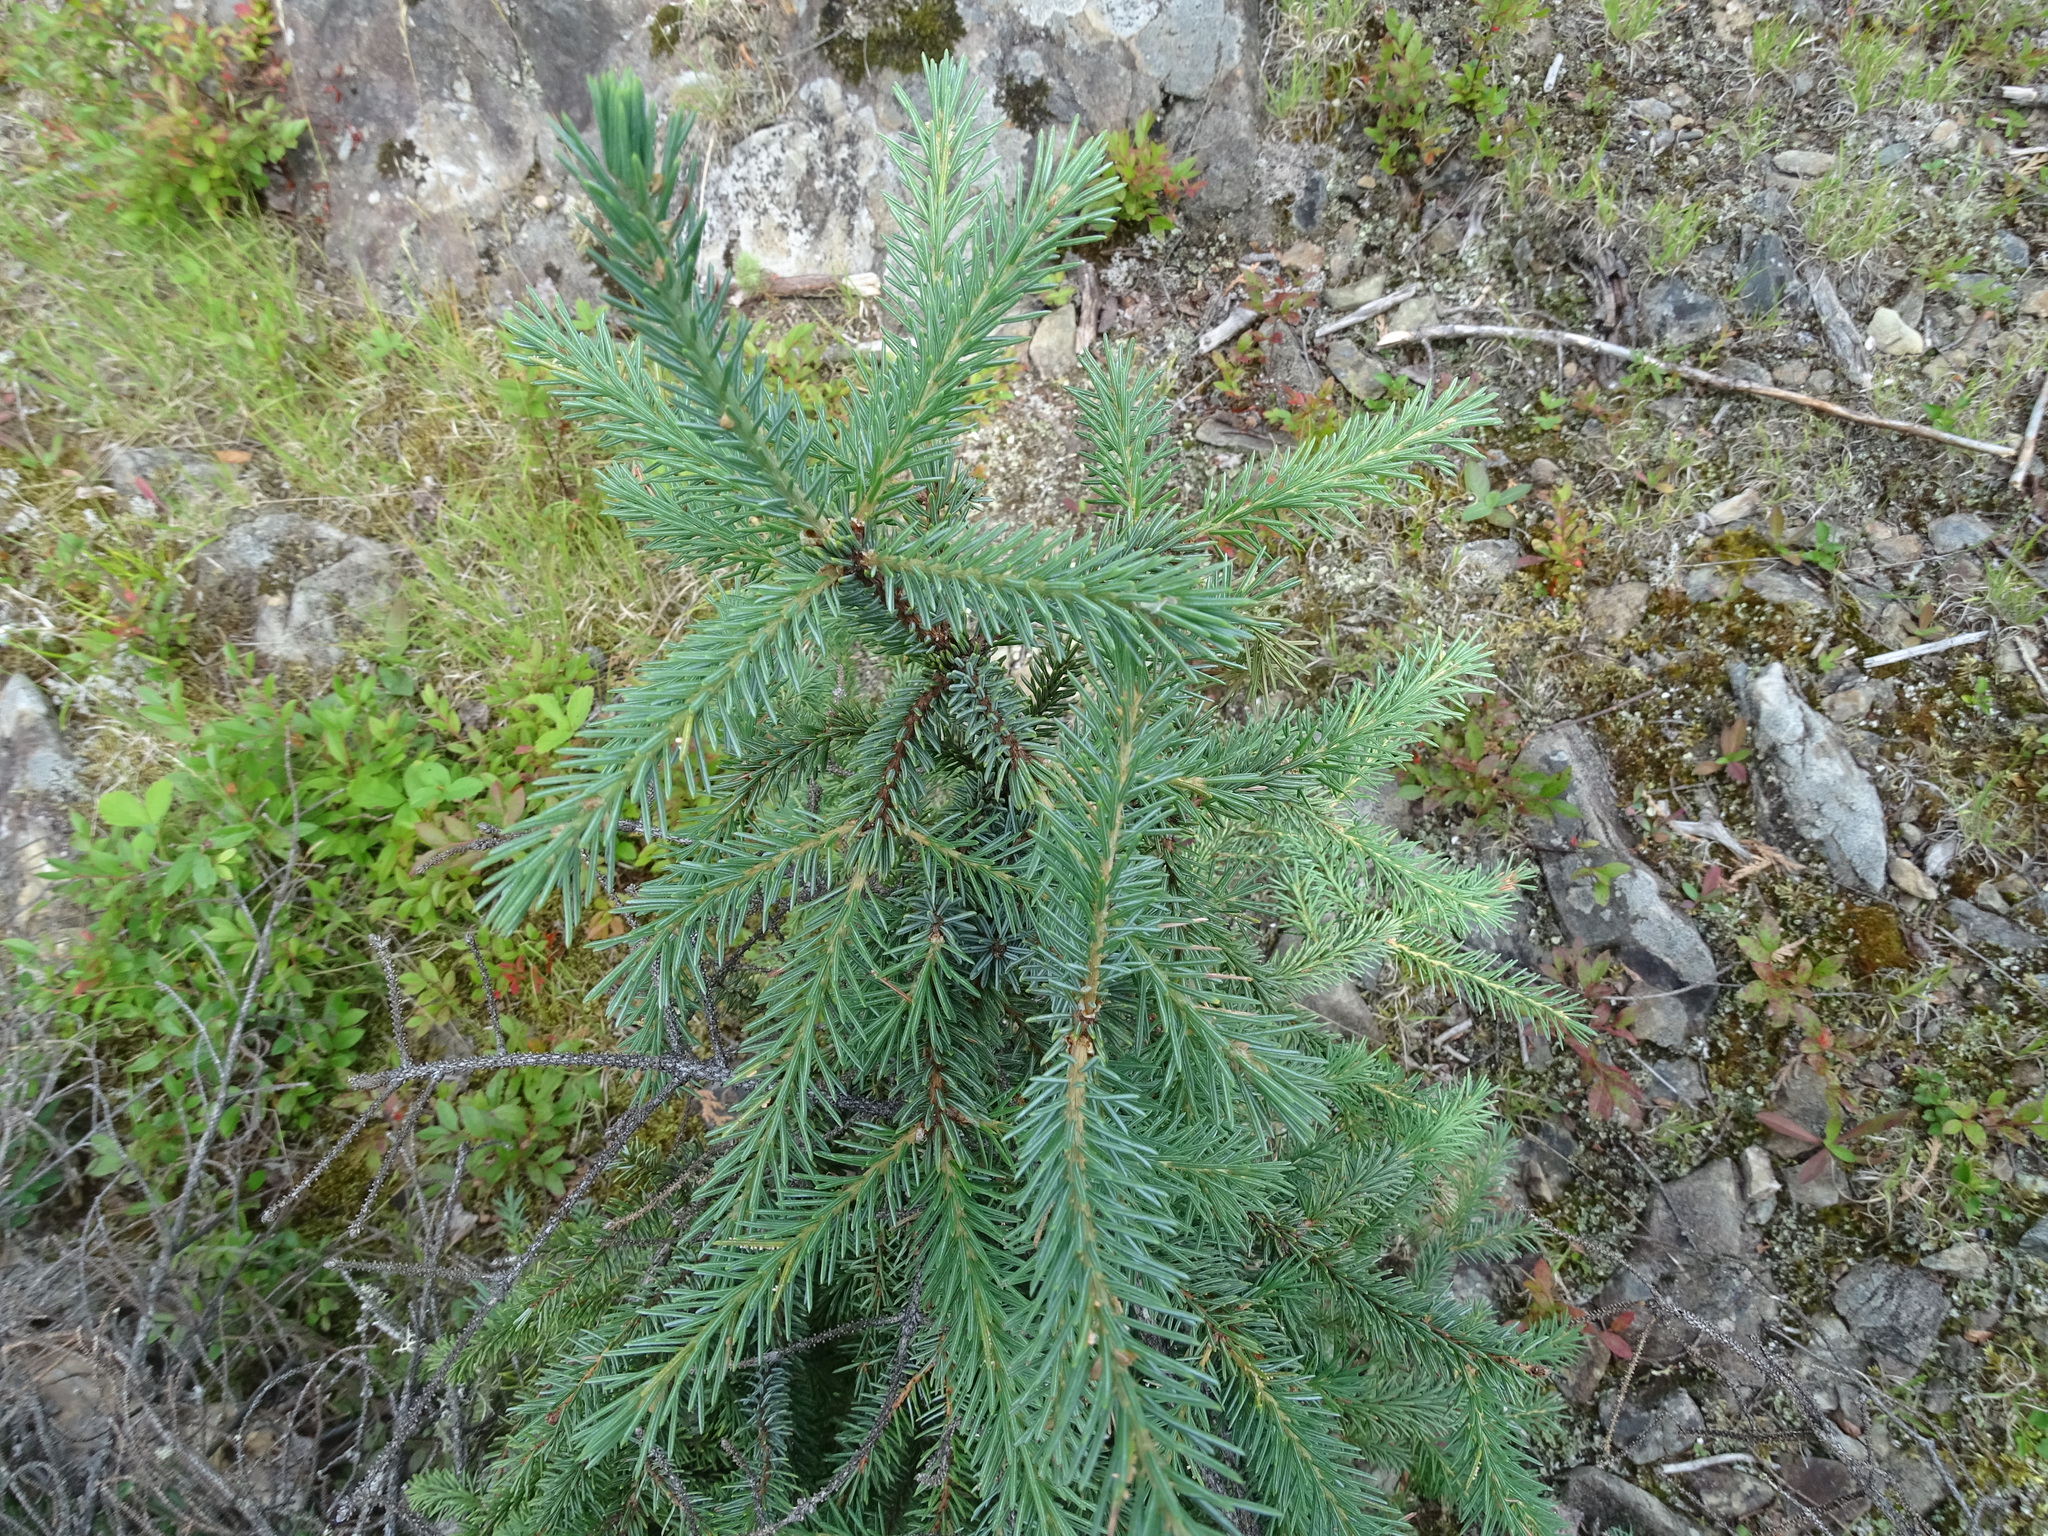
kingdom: Plantae
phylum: Tracheophyta
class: Pinopsida
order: Pinales
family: Pinaceae
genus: Picea
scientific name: Picea glauca
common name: White spruce
